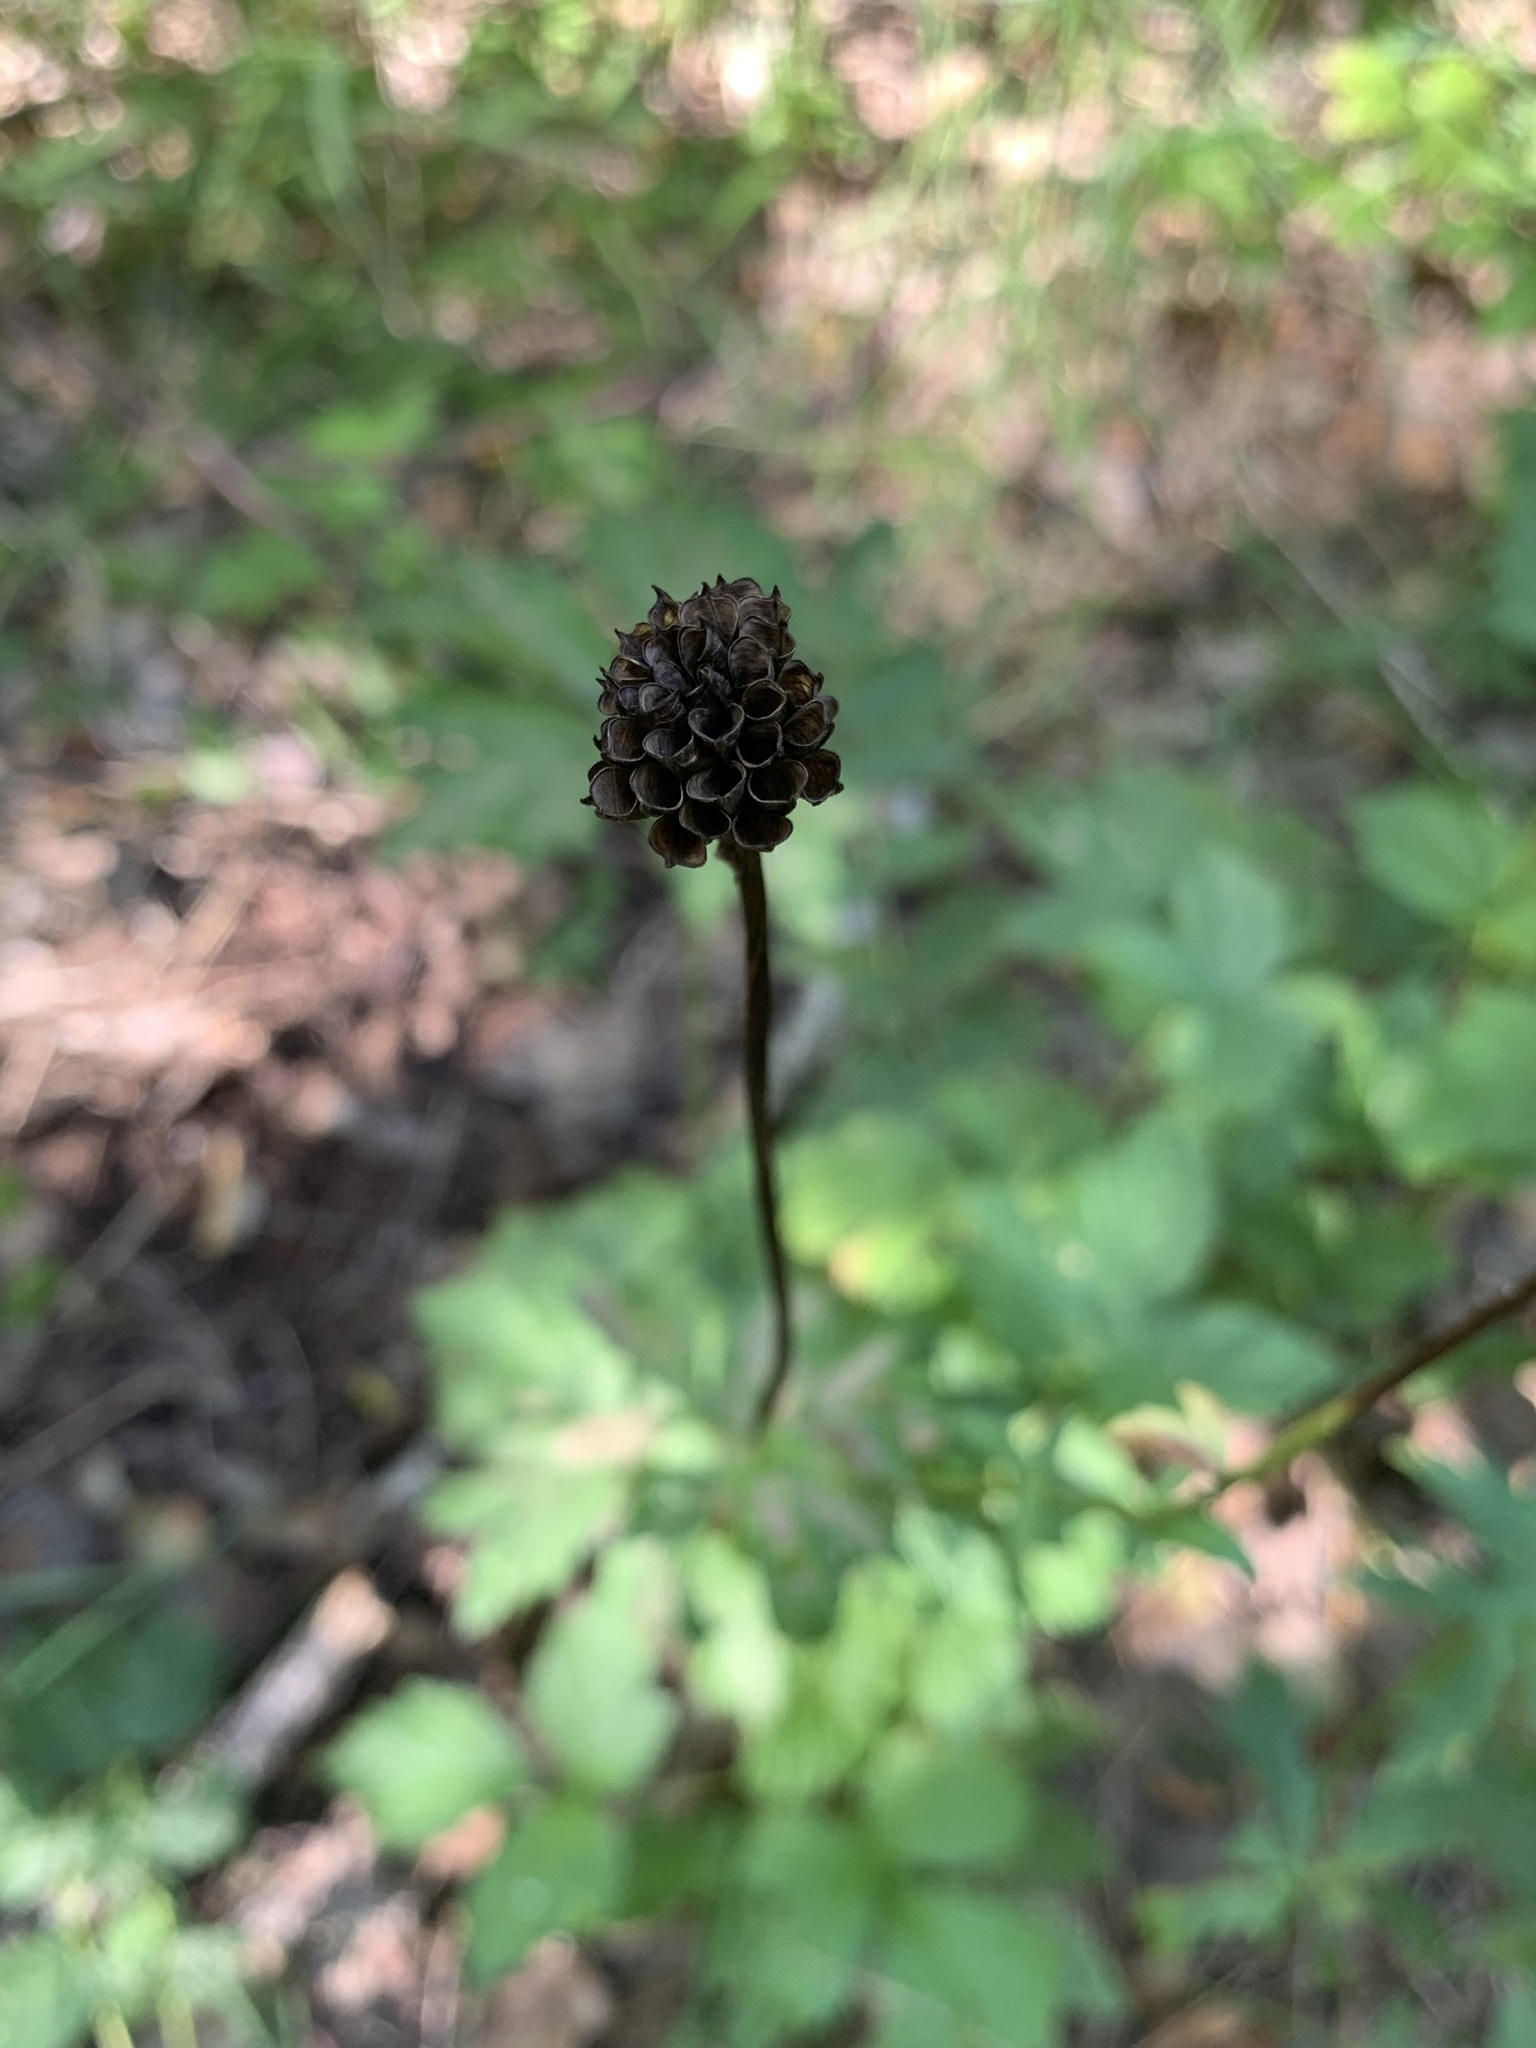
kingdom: Plantae
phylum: Tracheophyta
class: Magnoliopsida
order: Ranunculales
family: Ranunculaceae
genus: Trollius
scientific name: Trollius europaeus
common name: European globeflower
